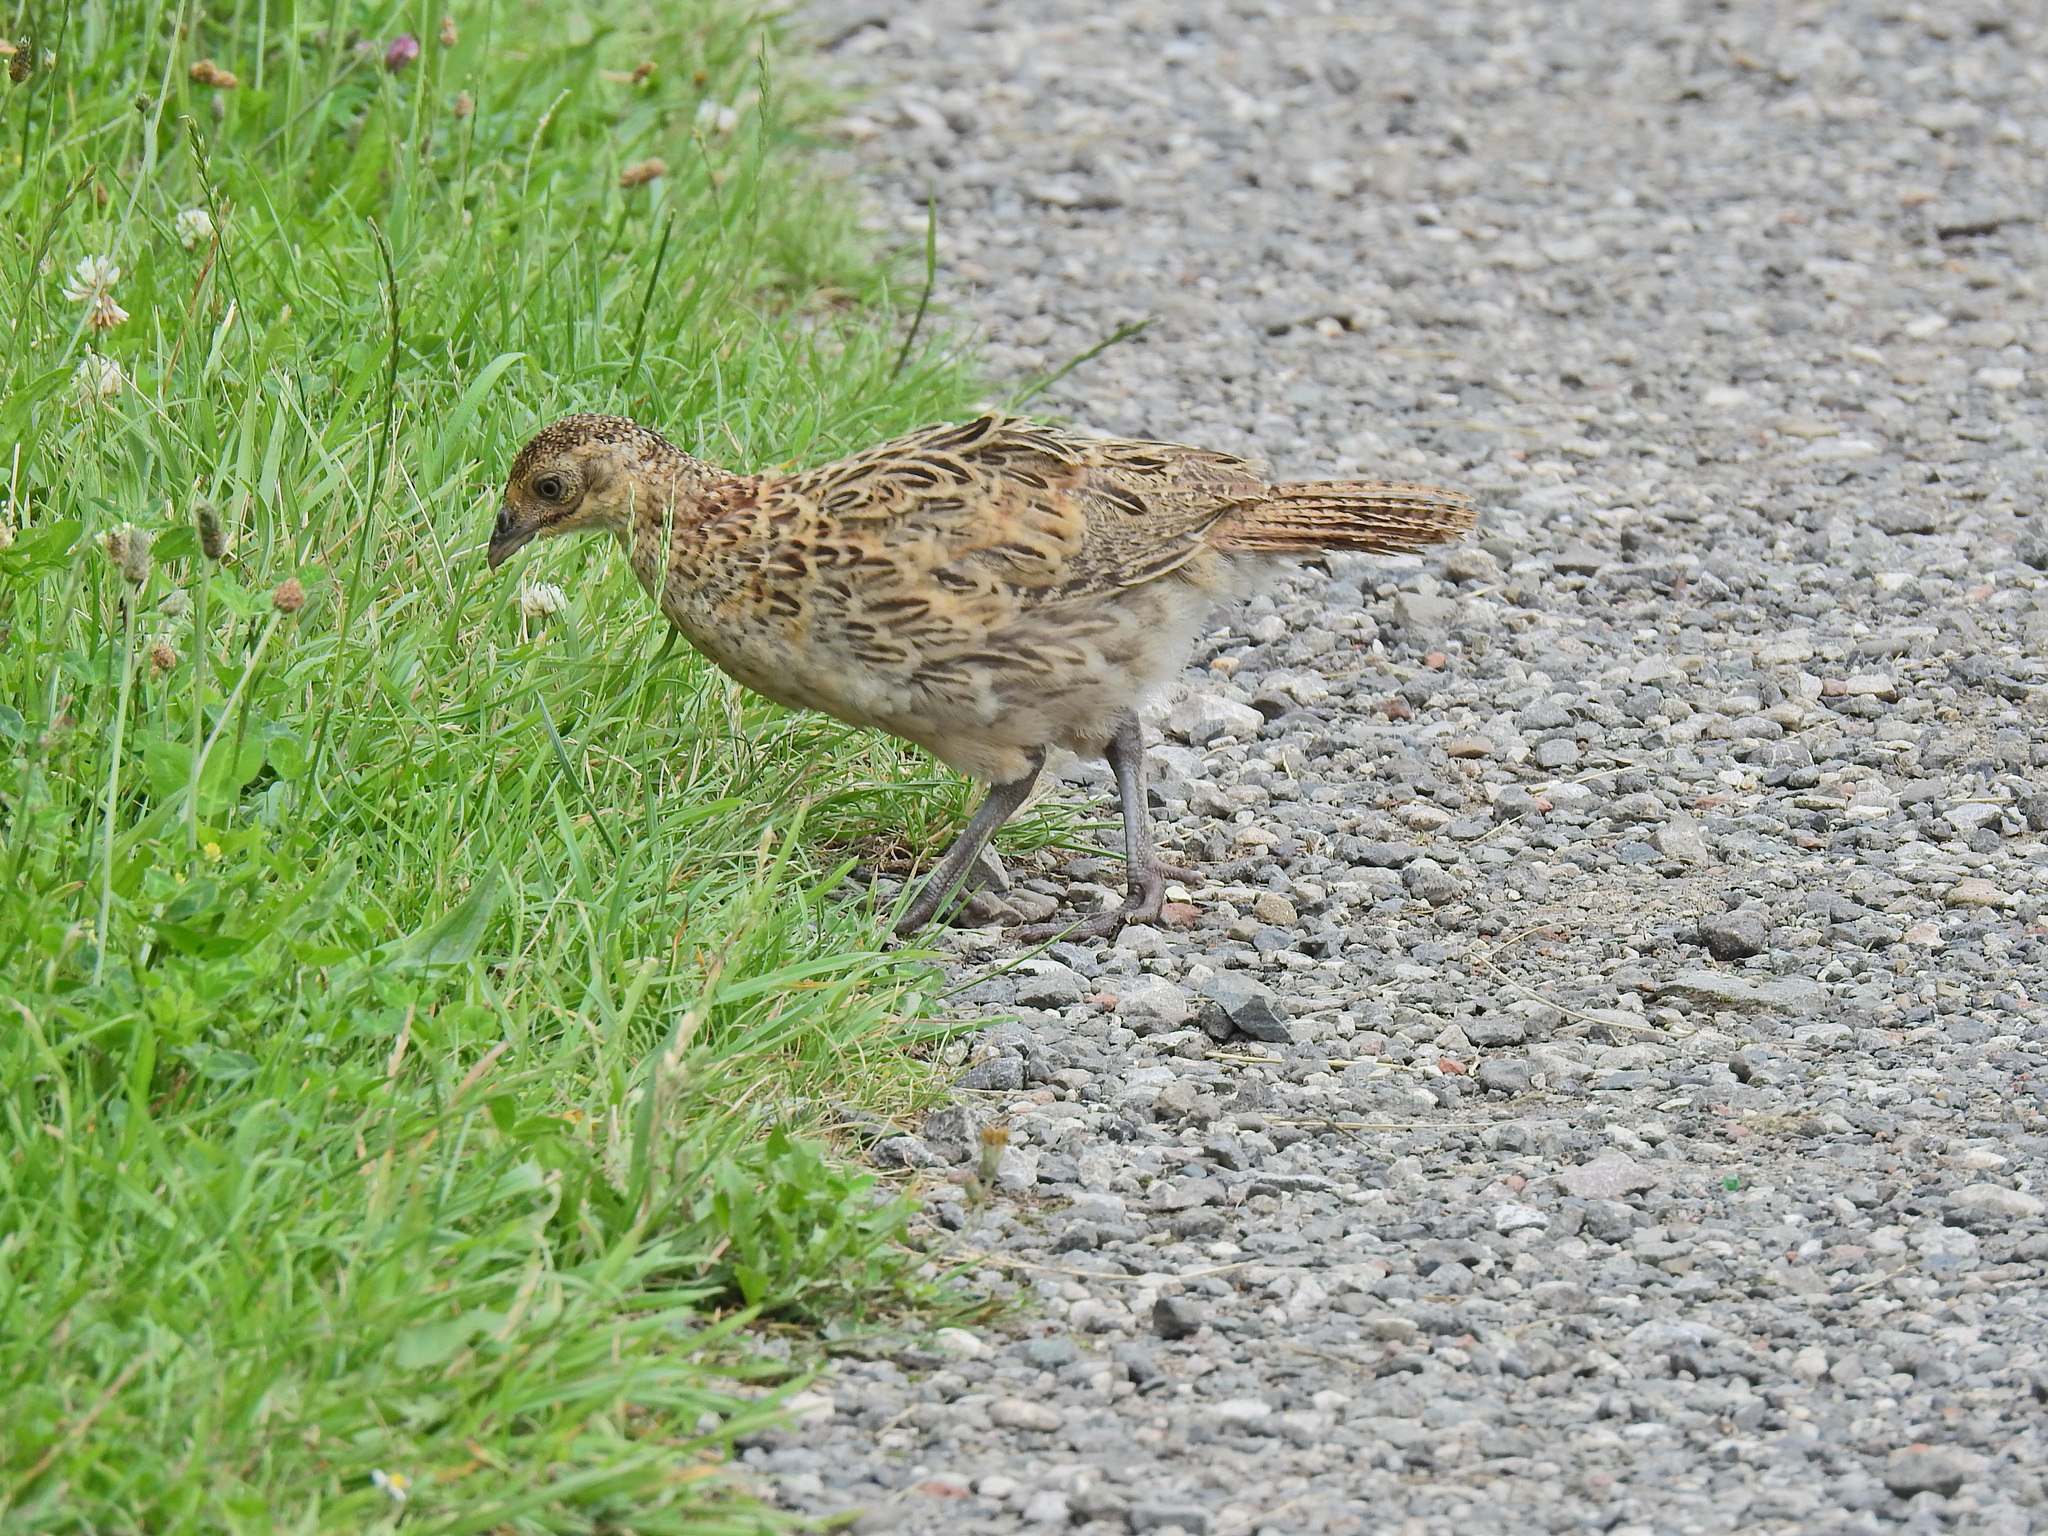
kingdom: Animalia
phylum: Chordata
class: Aves
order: Galliformes
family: Phasianidae
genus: Phasianus
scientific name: Phasianus colchicus
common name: Common pheasant
